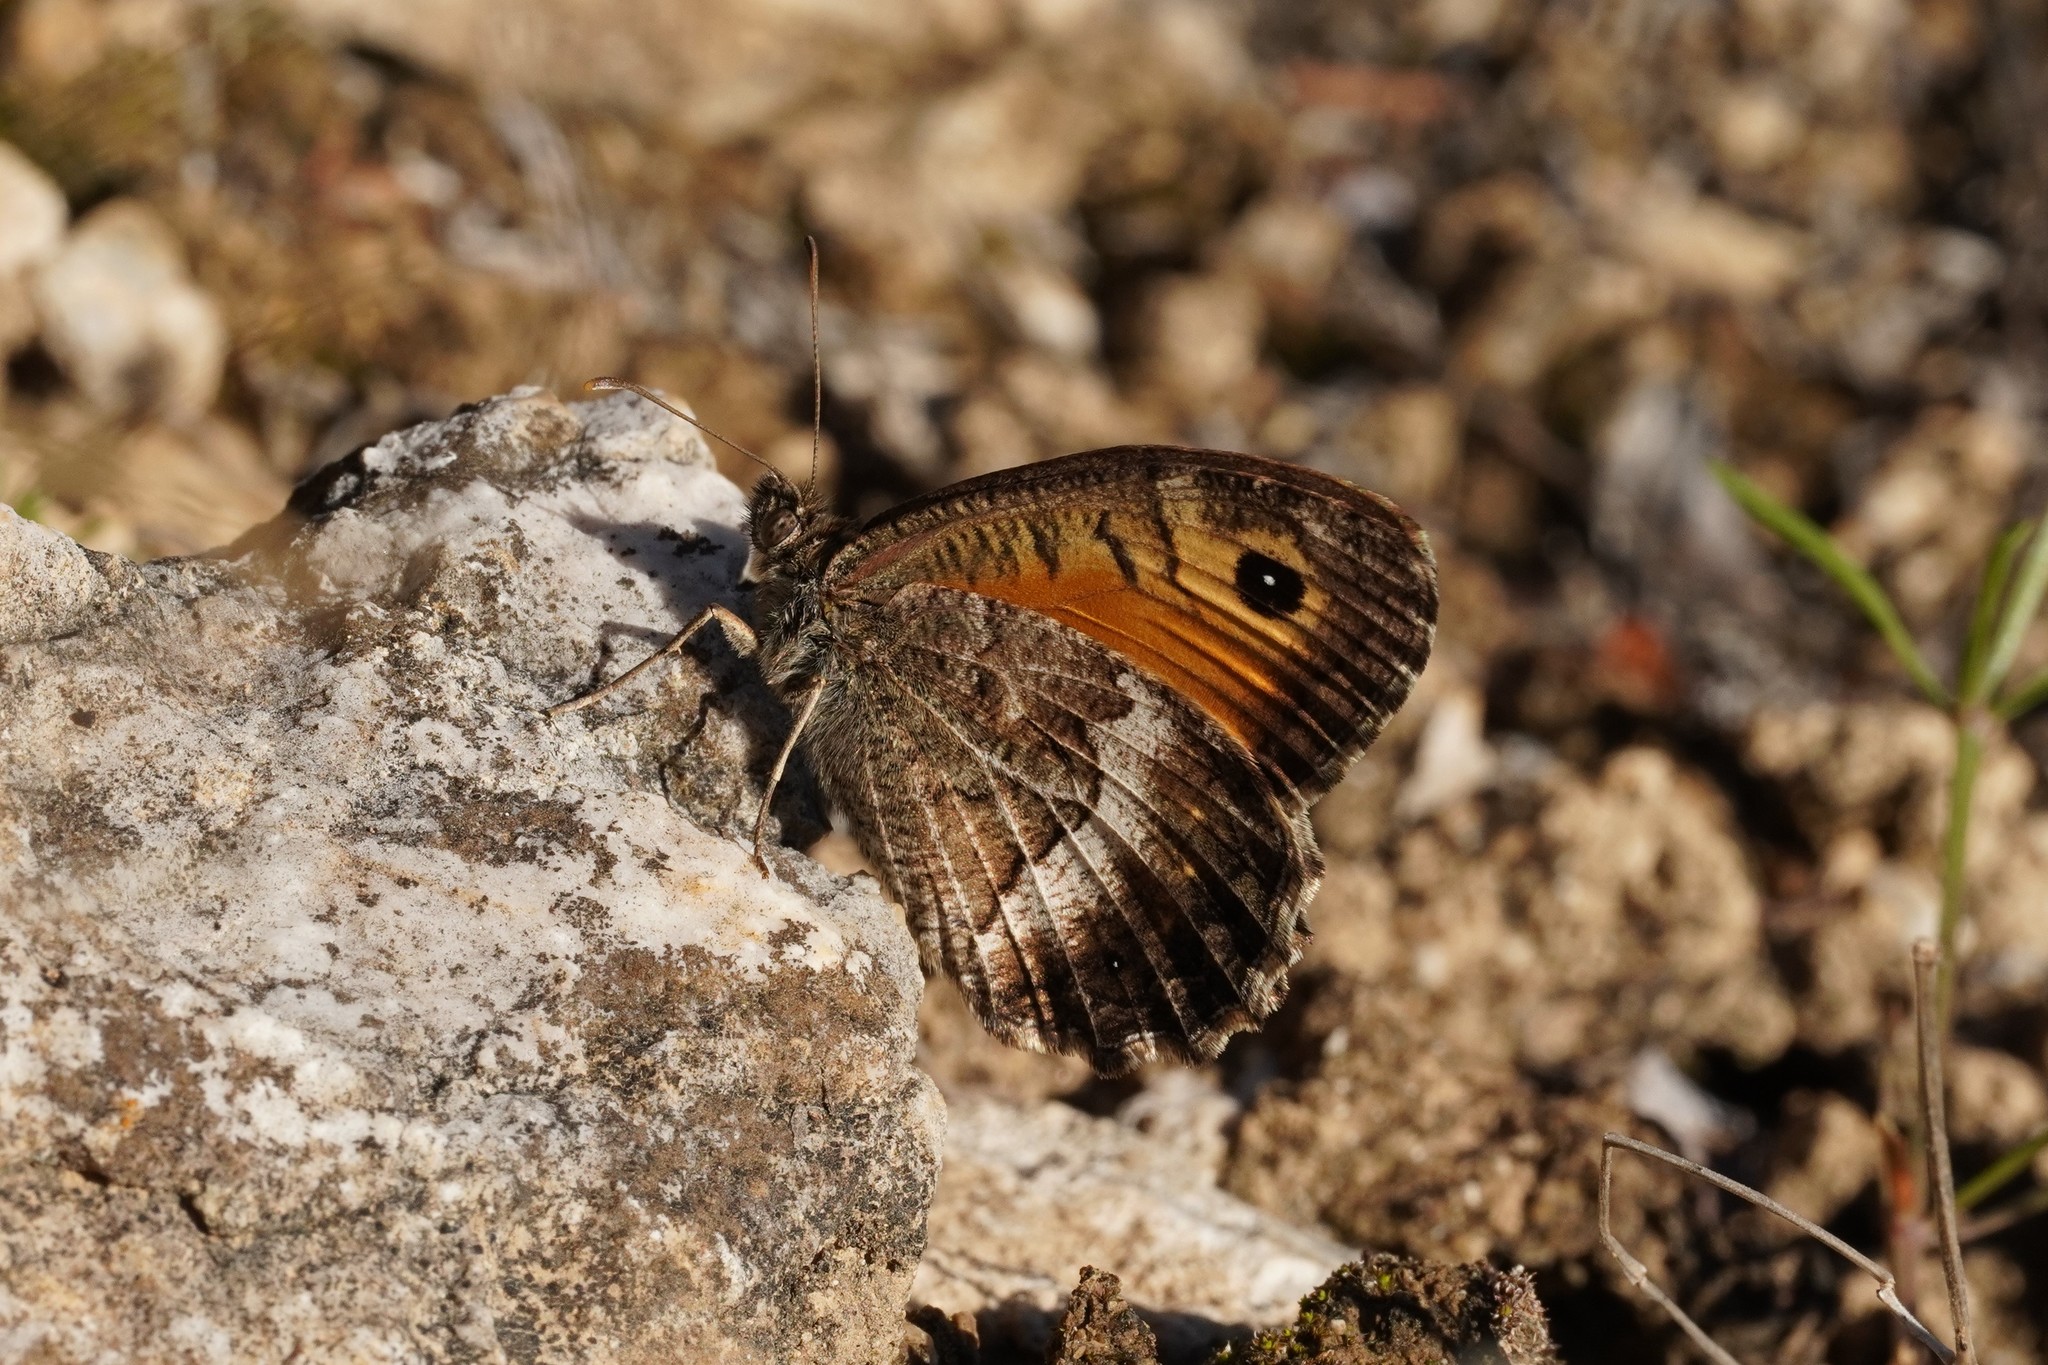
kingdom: Animalia
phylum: Arthropoda
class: Insecta
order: Lepidoptera
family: Nymphalidae
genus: Arethusana
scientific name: Arethusana arethusa
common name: False grayling
